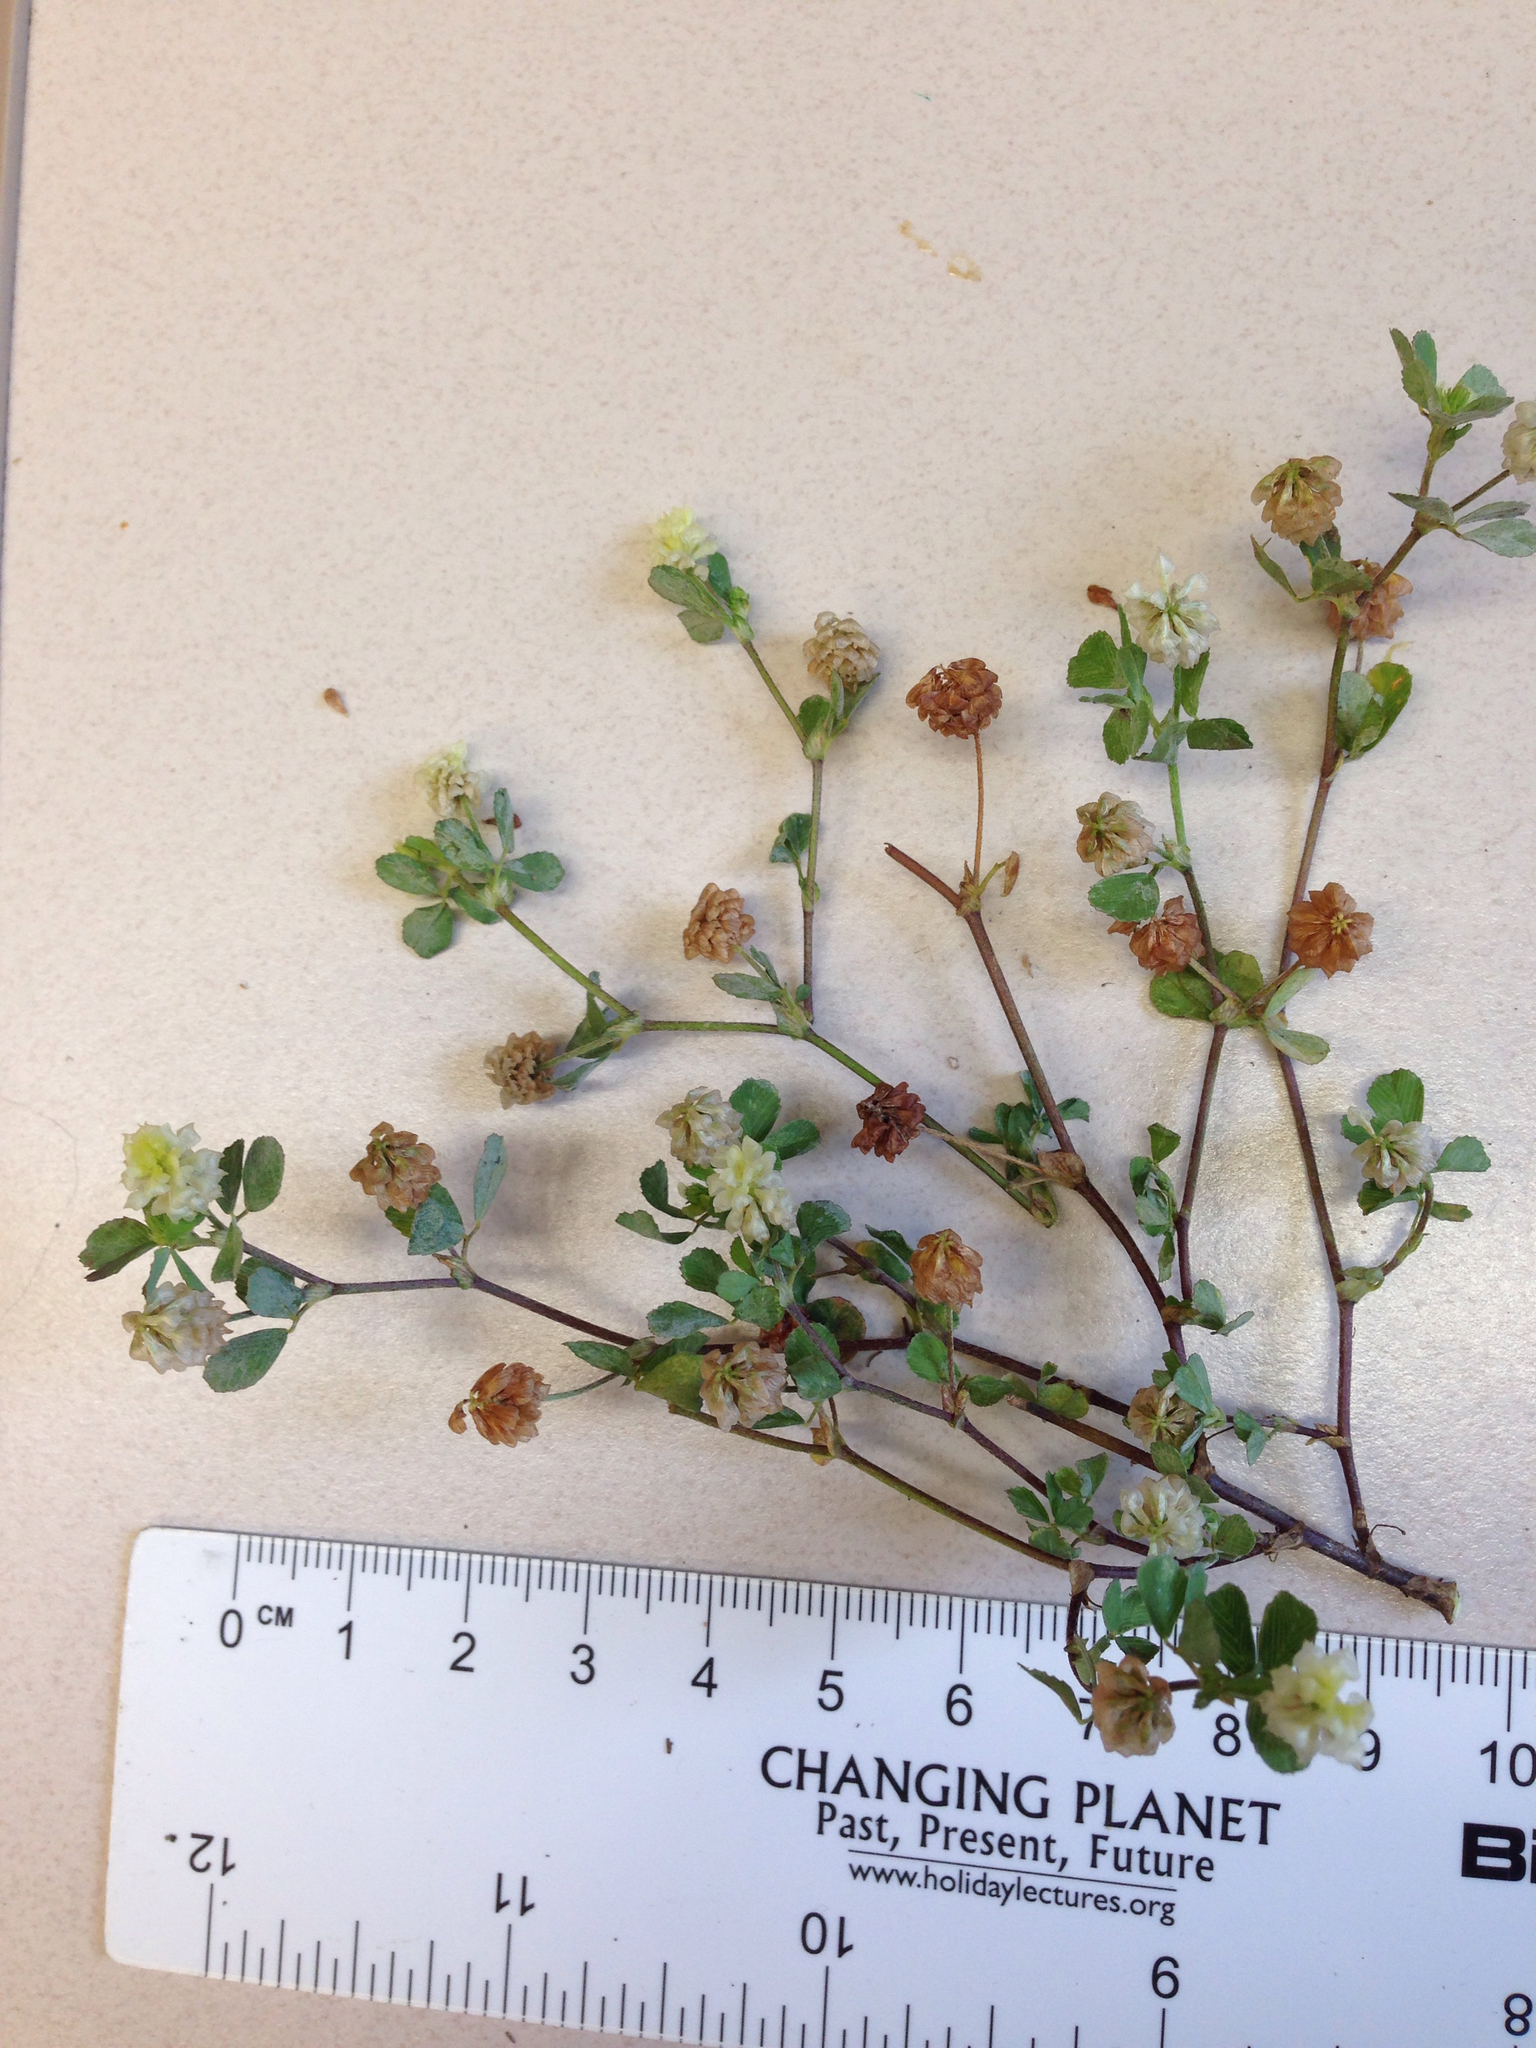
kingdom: Plantae
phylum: Tracheophyta
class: Magnoliopsida
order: Fabales
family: Fabaceae
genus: Trifolium
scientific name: Trifolium campestre
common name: Field clover
